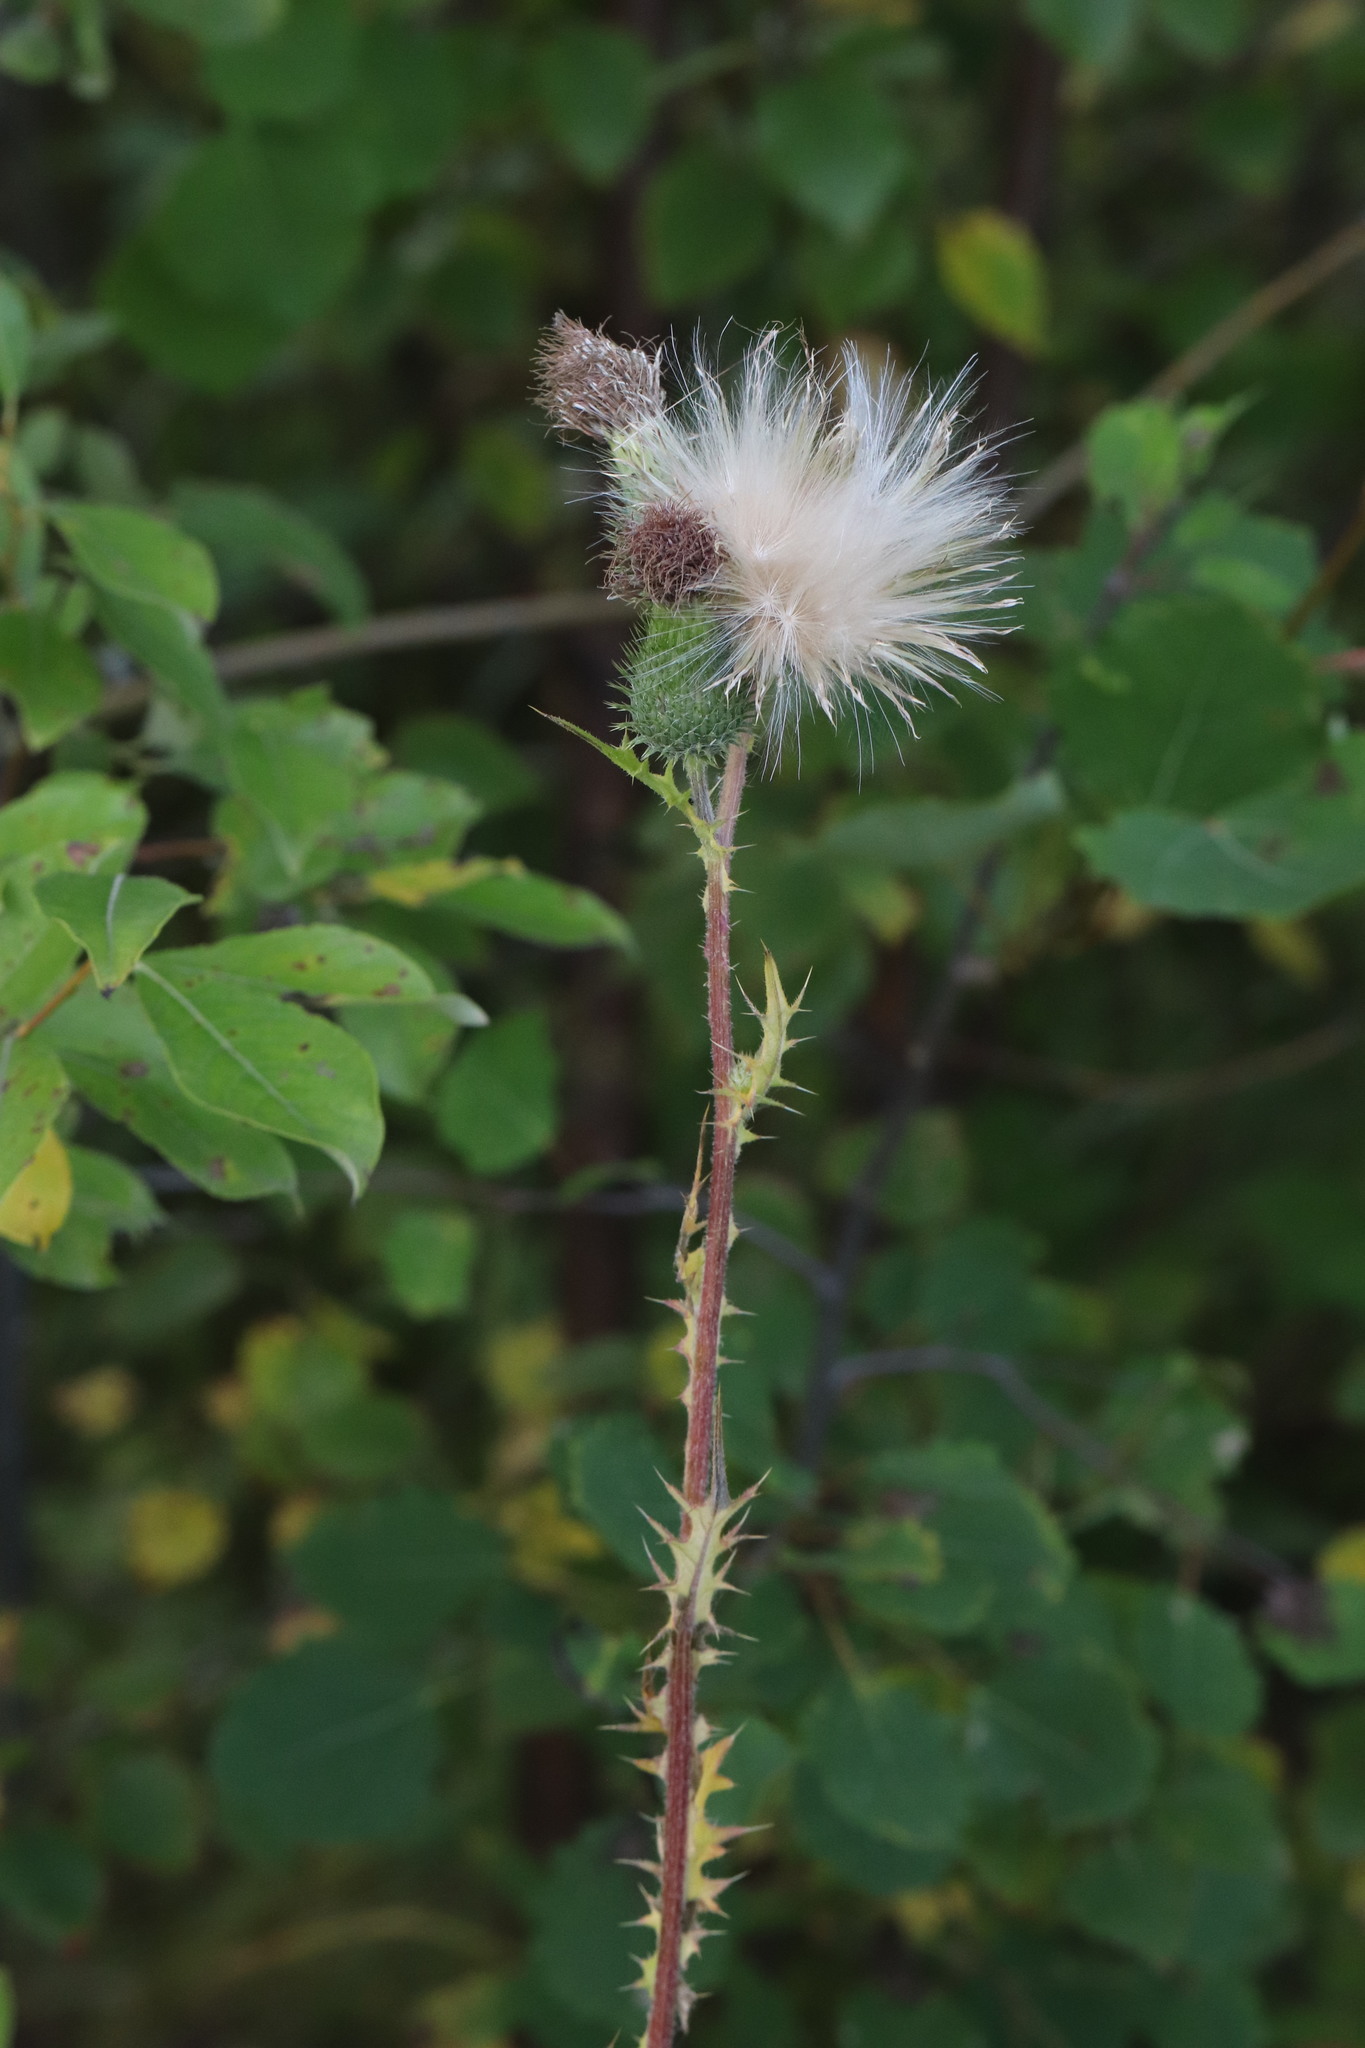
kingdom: Plantae
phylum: Tracheophyta
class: Magnoliopsida
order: Asterales
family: Asteraceae
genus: Cirsium
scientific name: Cirsium vulgare
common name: Bull thistle
